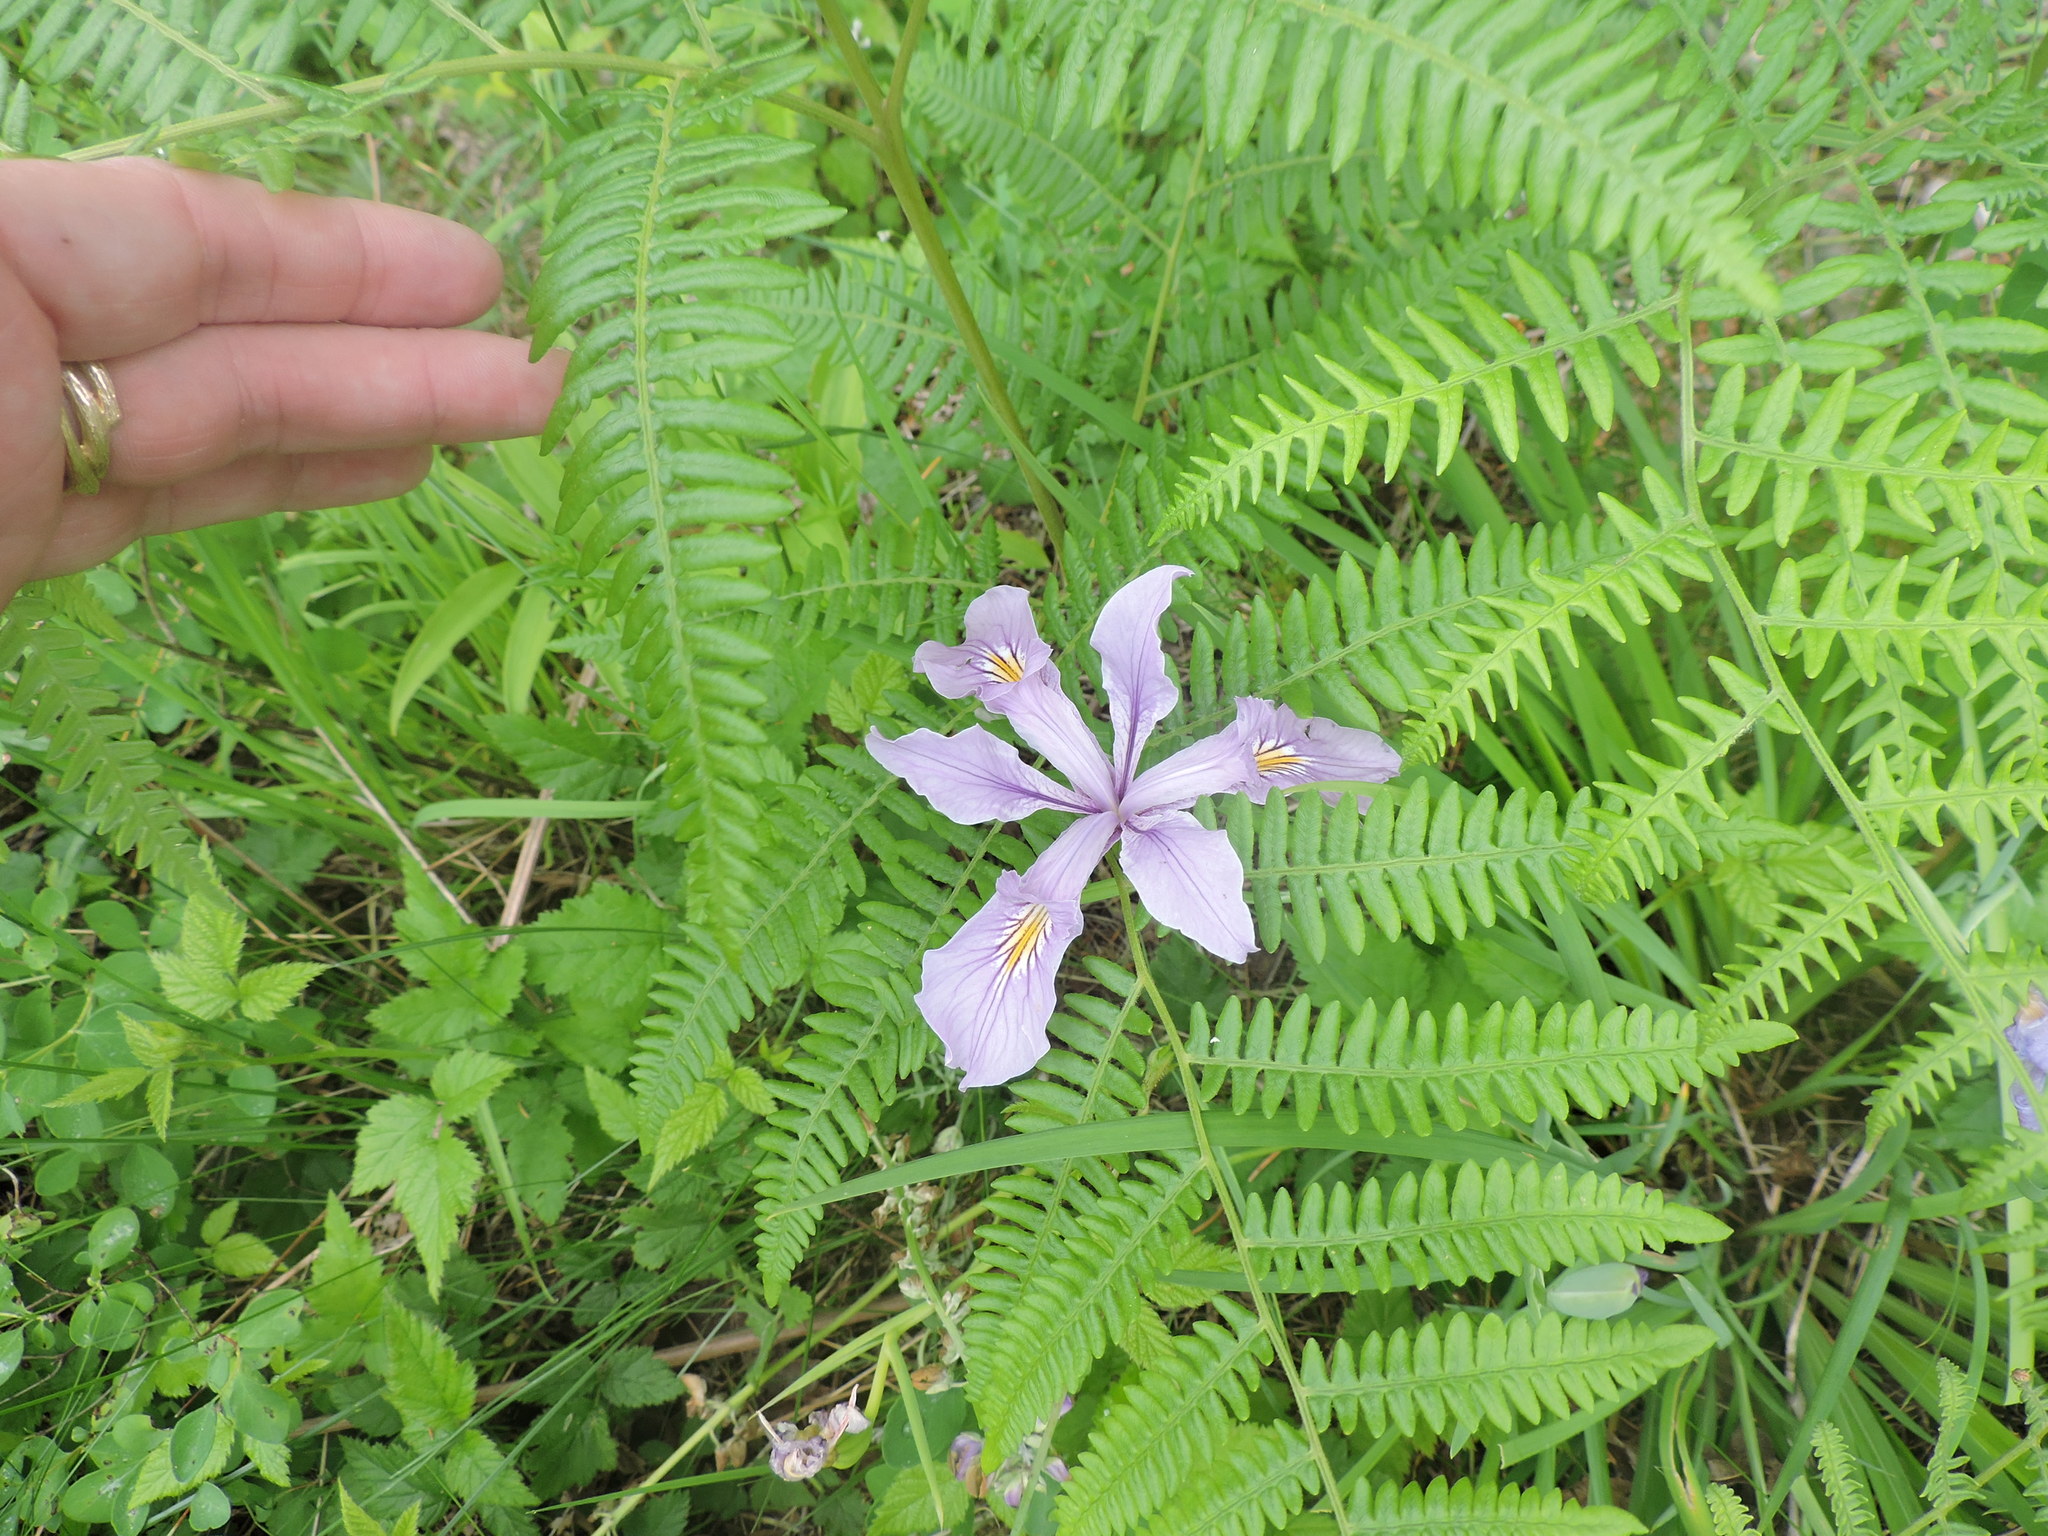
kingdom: Plantae
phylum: Tracheophyta
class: Liliopsida
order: Asparagales
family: Iridaceae
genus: Iris
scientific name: Iris tenax
